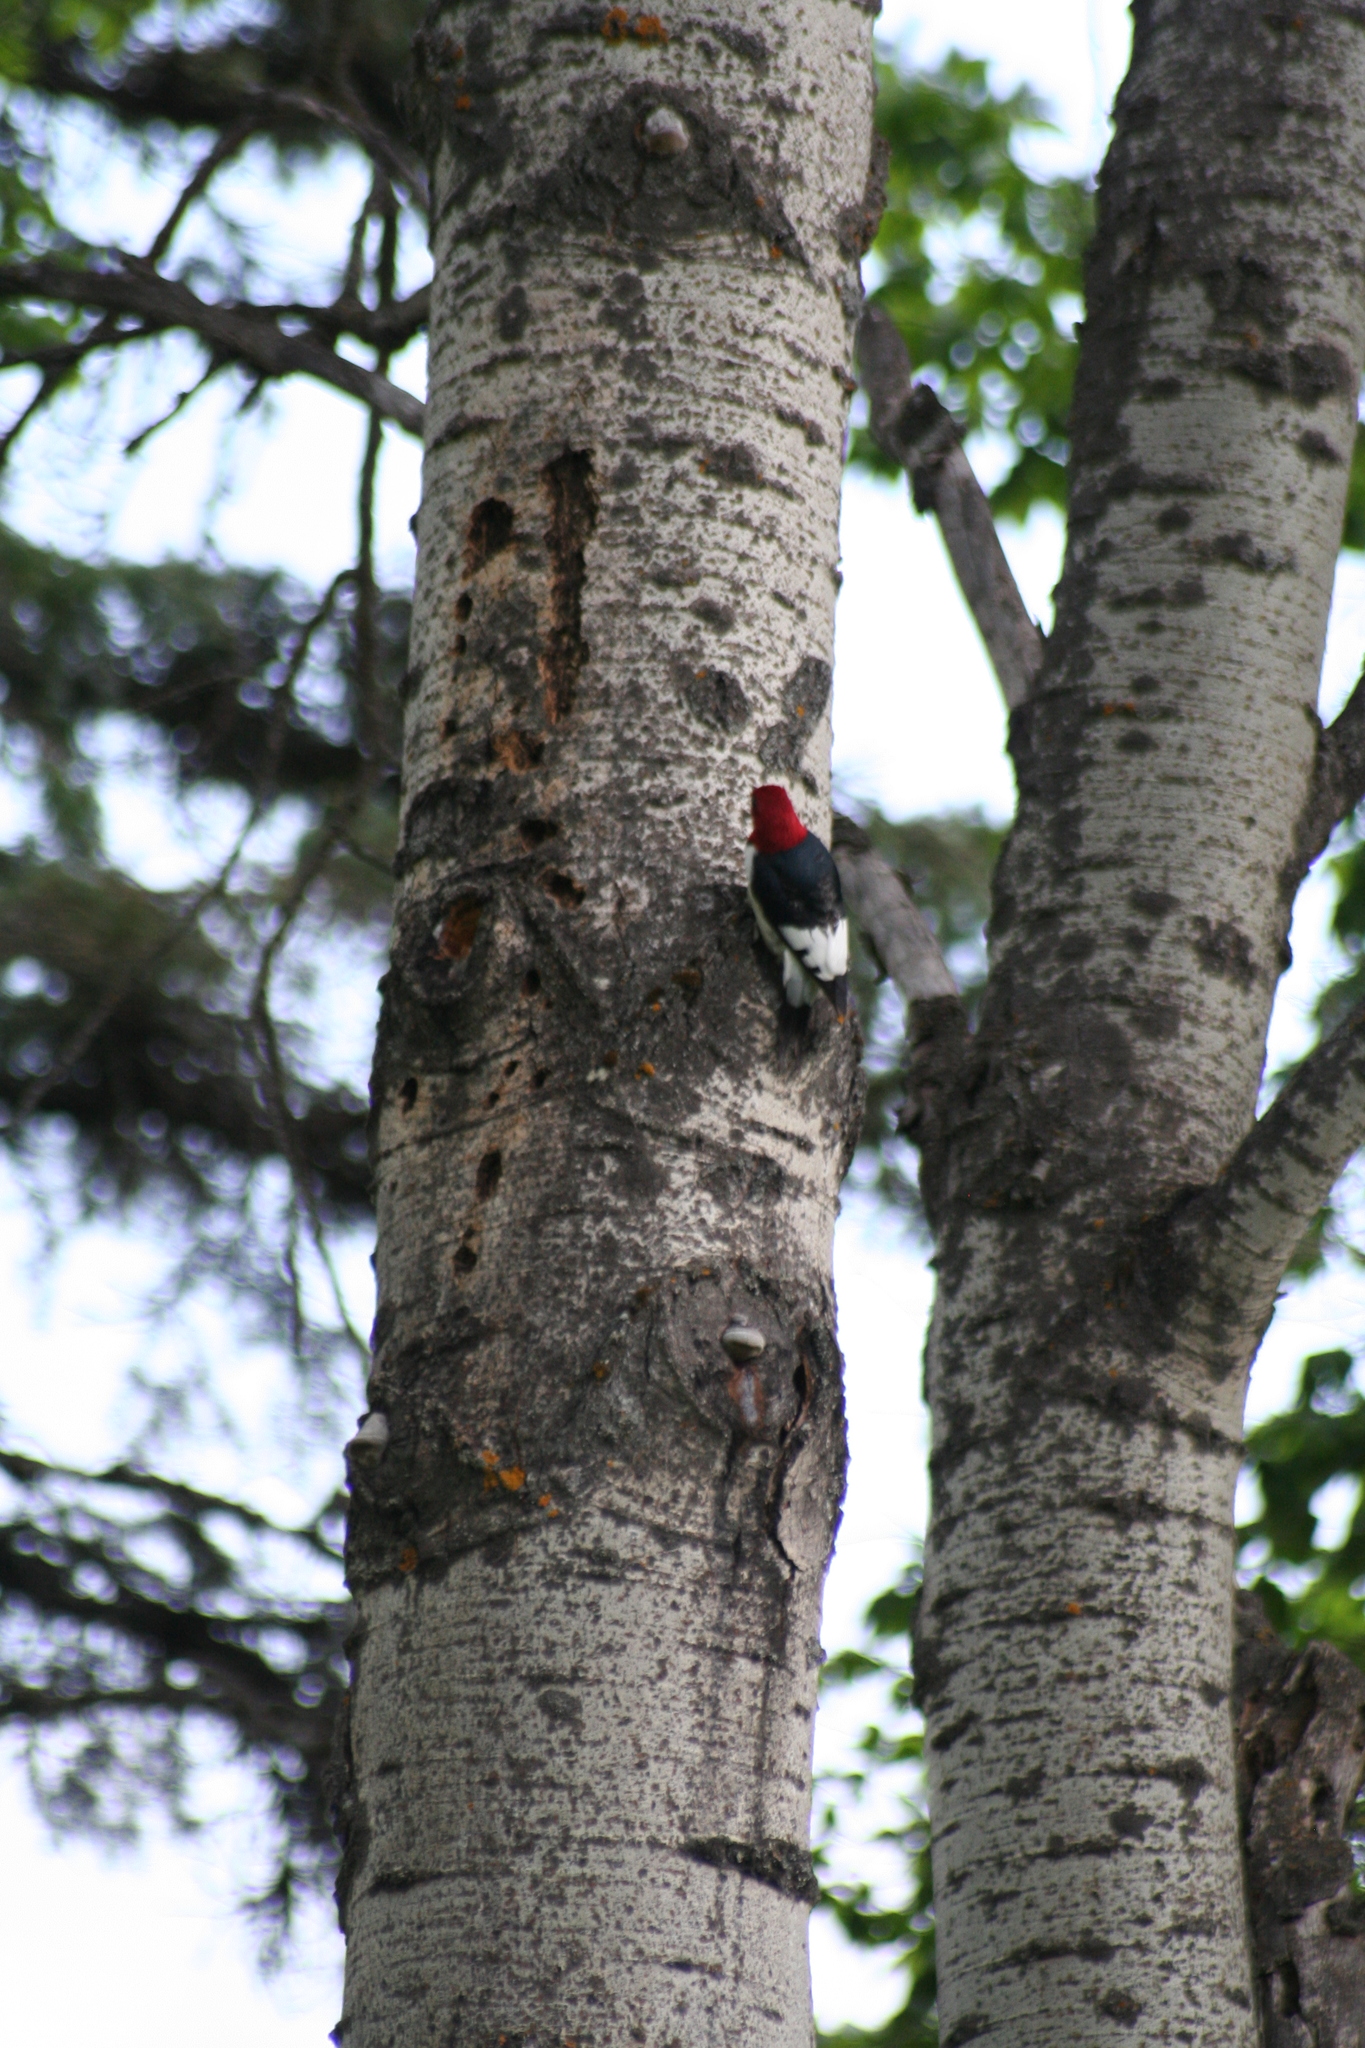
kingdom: Animalia
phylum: Chordata
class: Aves
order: Piciformes
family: Picidae
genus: Melanerpes
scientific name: Melanerpes erythrocephalus
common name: Red-headed woodpecker
